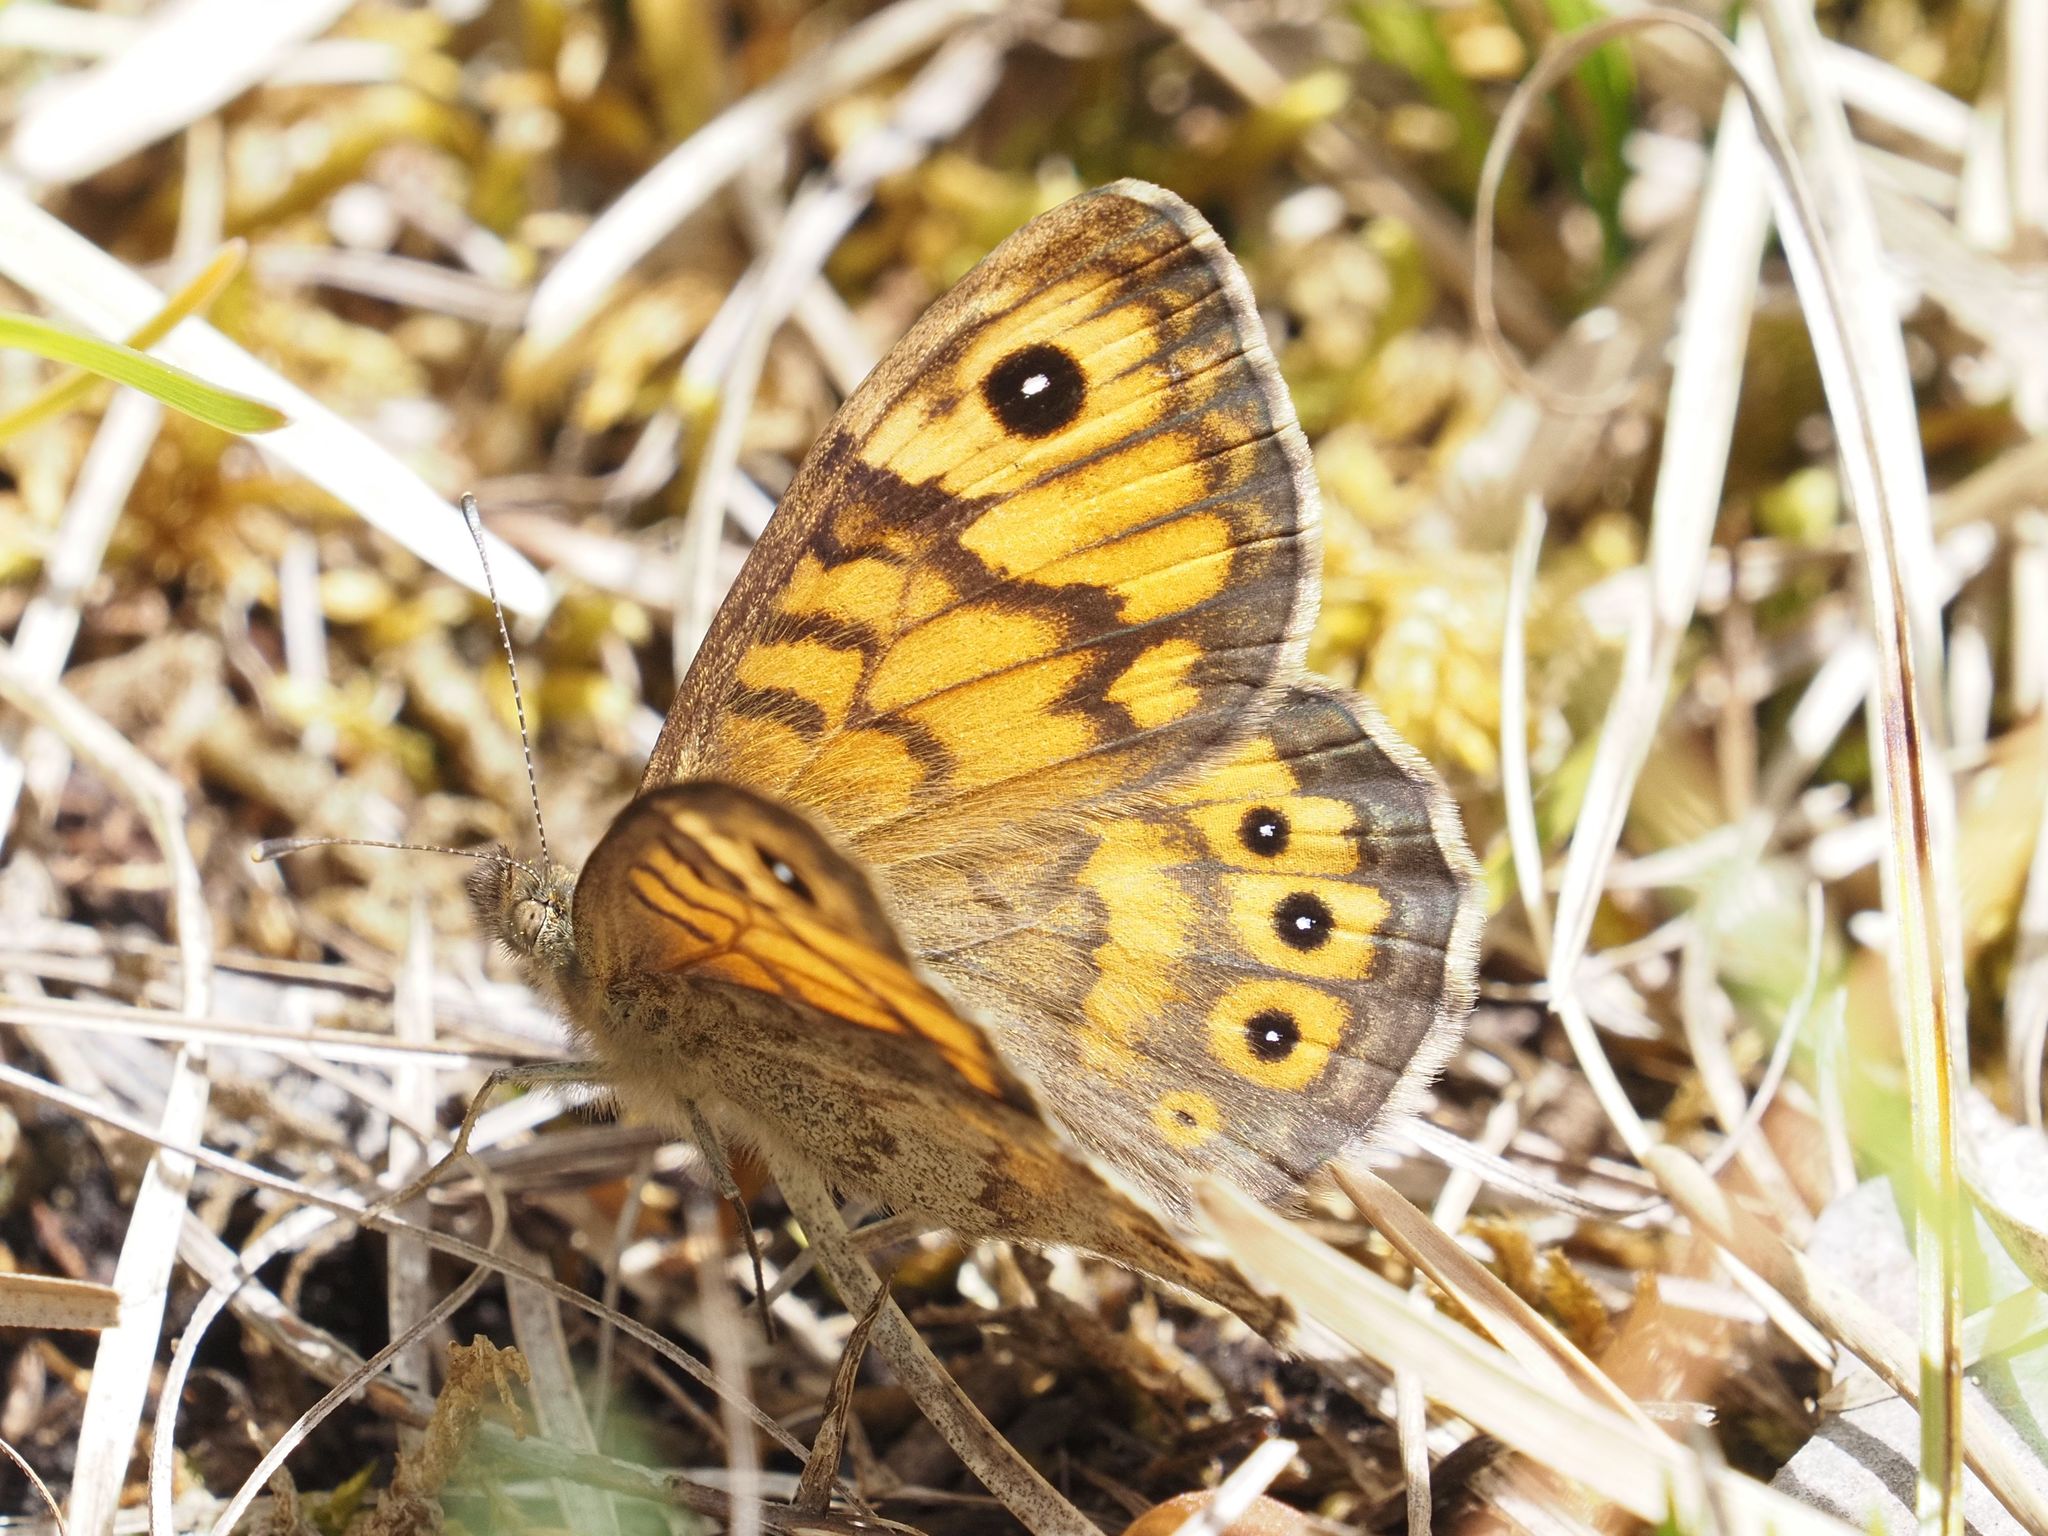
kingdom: Animalia
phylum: Arthropoda
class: Insecta
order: Lepidoptera
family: Nymphalidae
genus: Pararge
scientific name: Pararge Lasiommata megera
